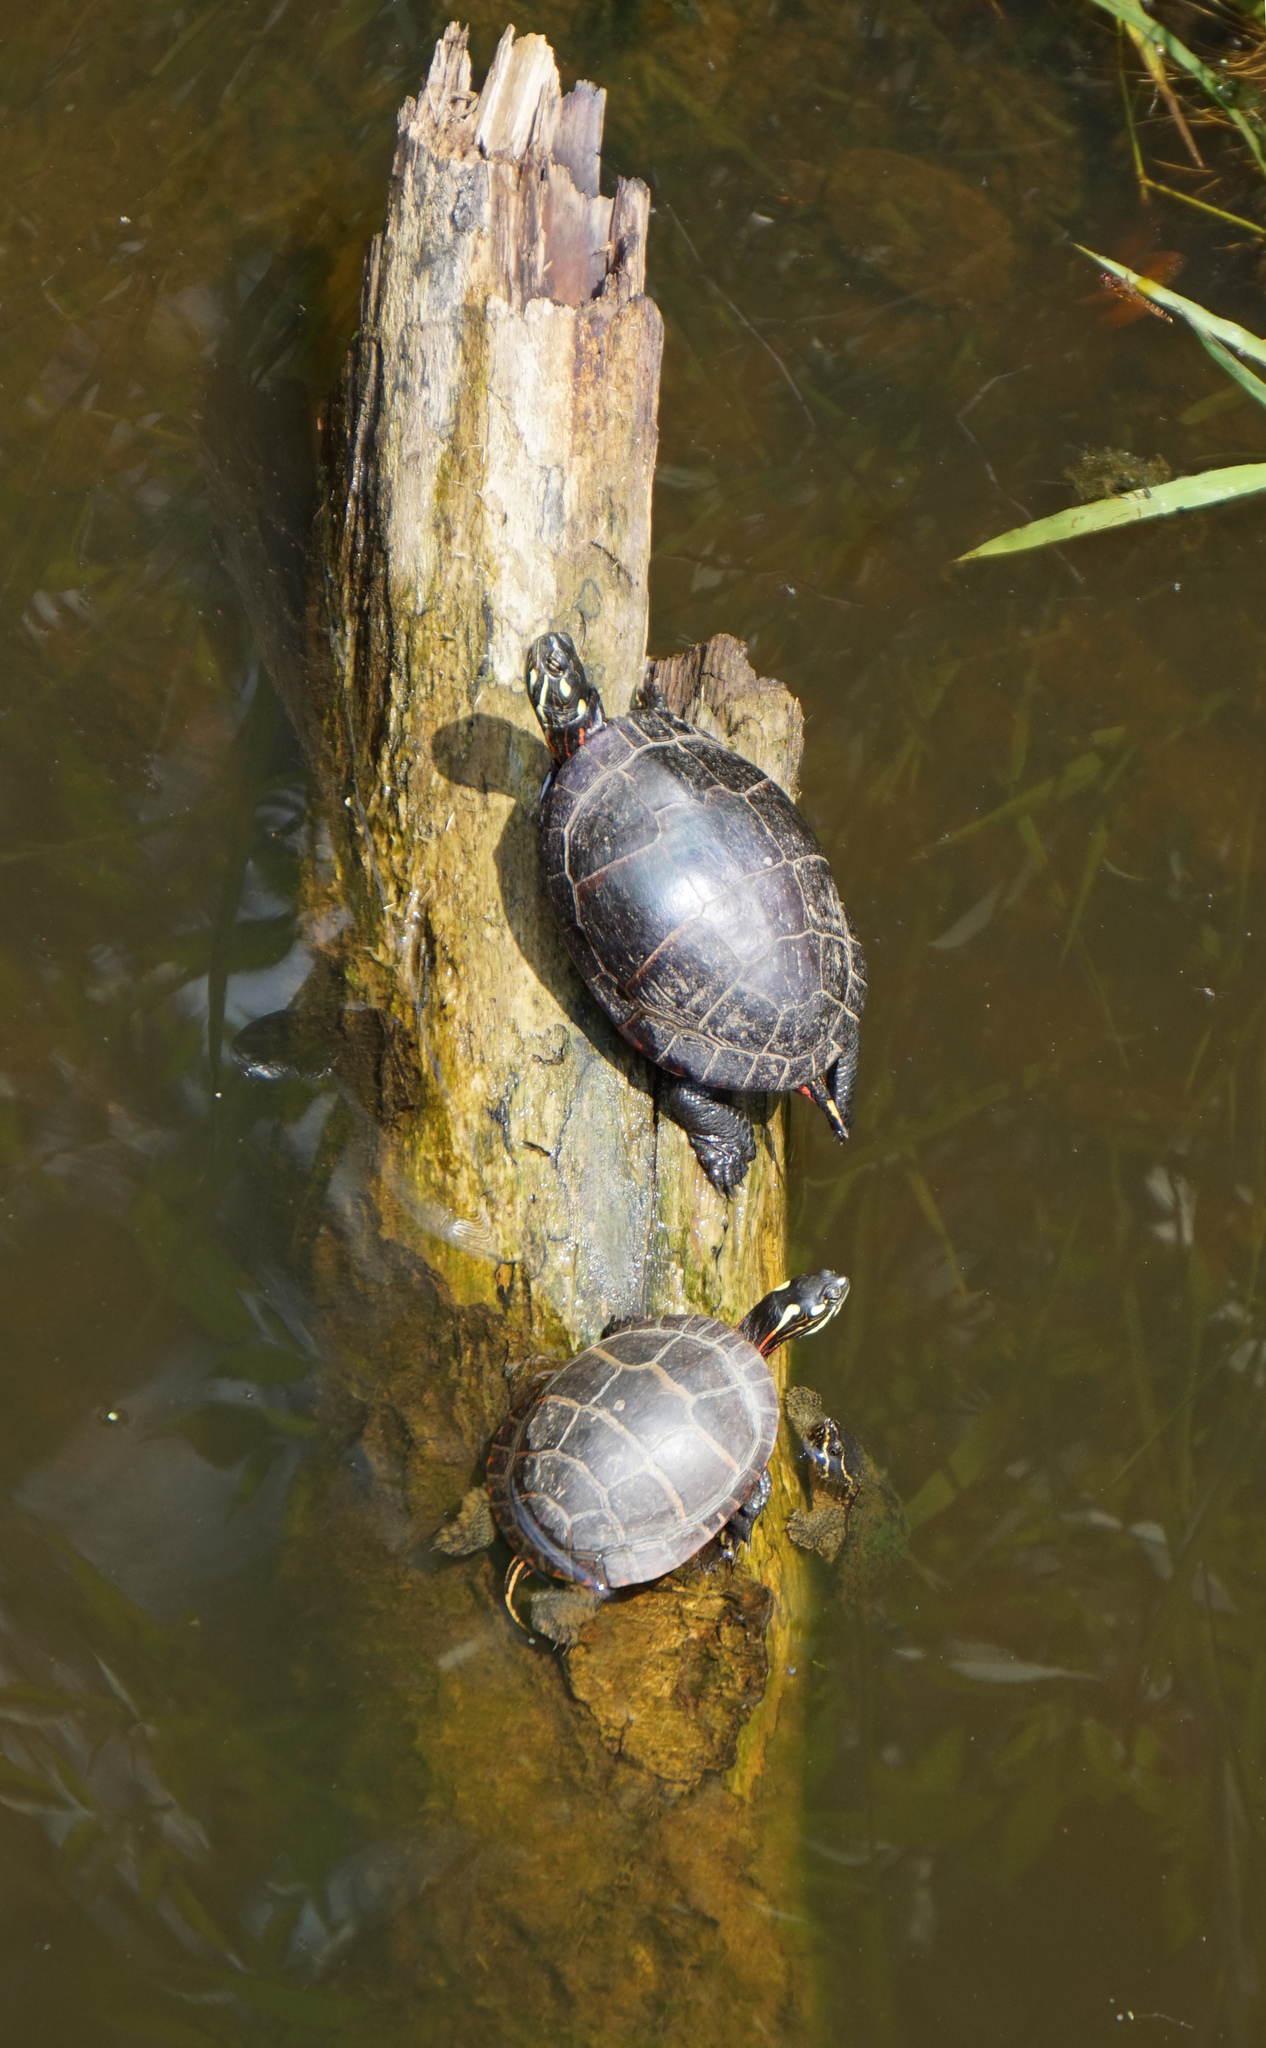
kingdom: Animalia
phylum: Chordata
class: Testudines
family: Emydidae
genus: Chrysemys
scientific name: Chrysemys picta
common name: Painted turtle
